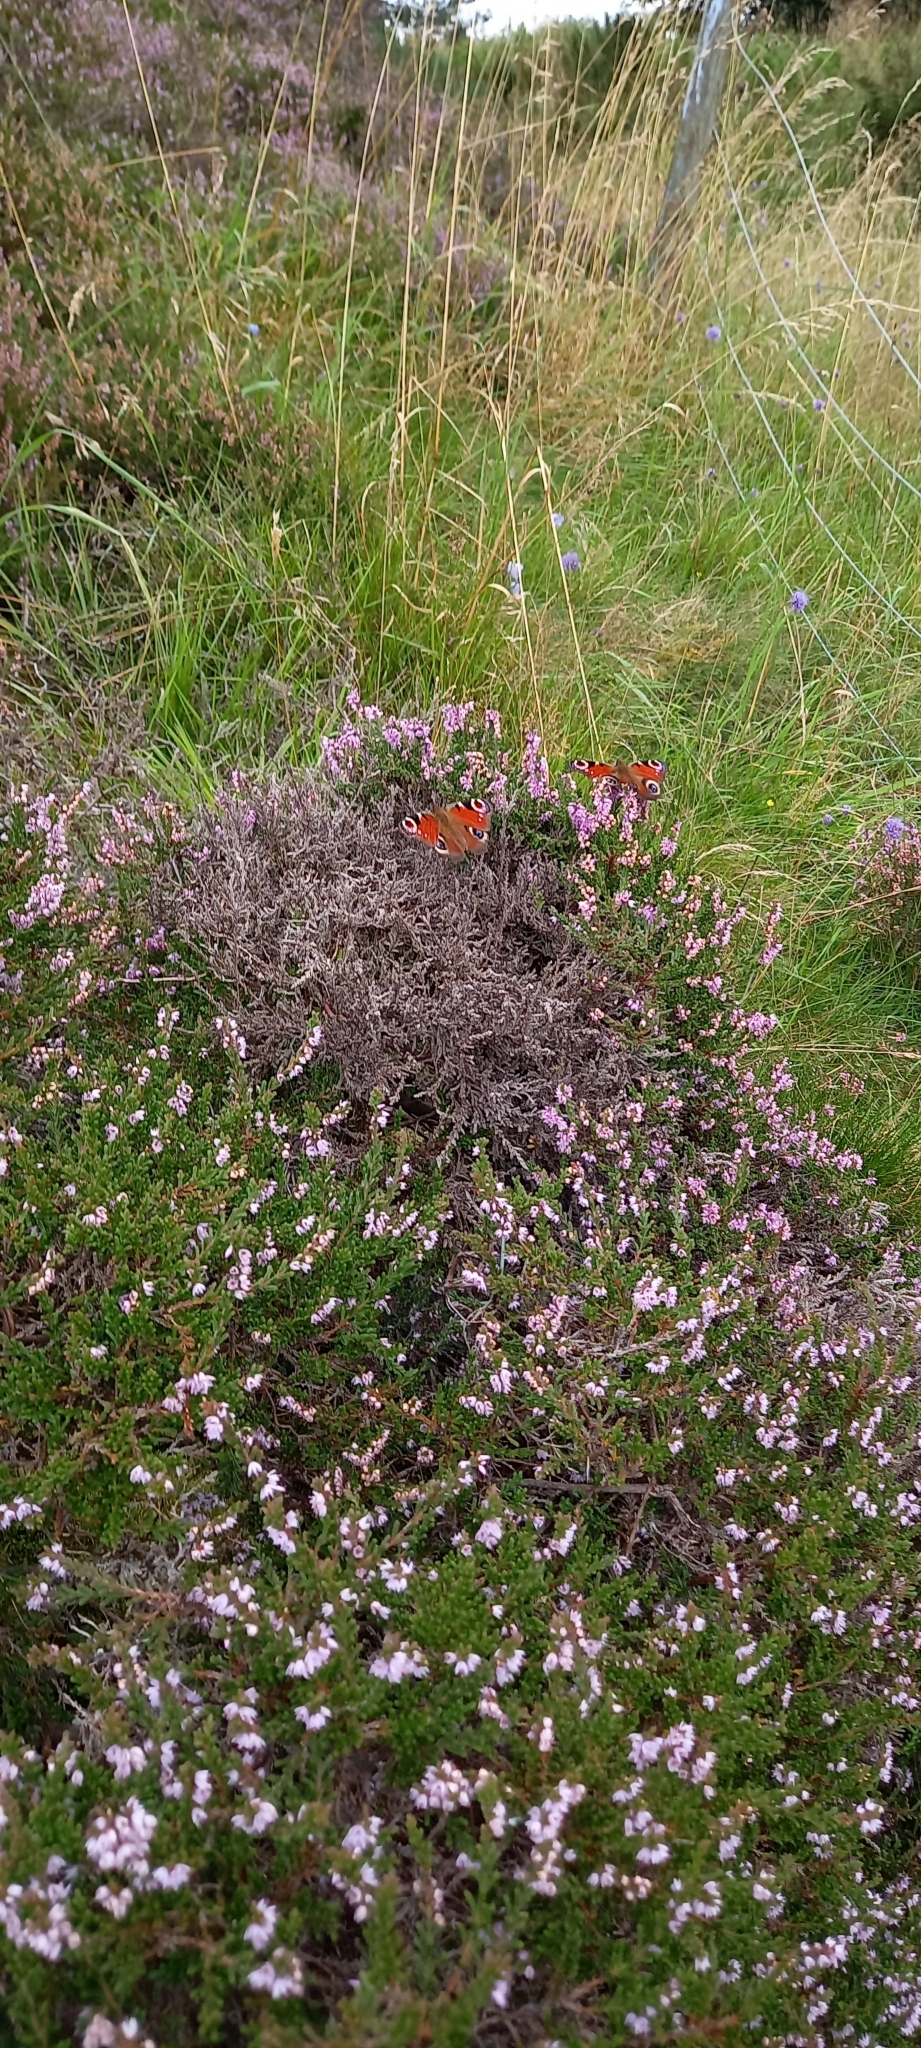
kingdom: Animalia
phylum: Arthropoda
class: Insecta
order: Lepidoptera
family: Nymphalidae
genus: Aglais
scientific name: Aglais io
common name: Peacock
